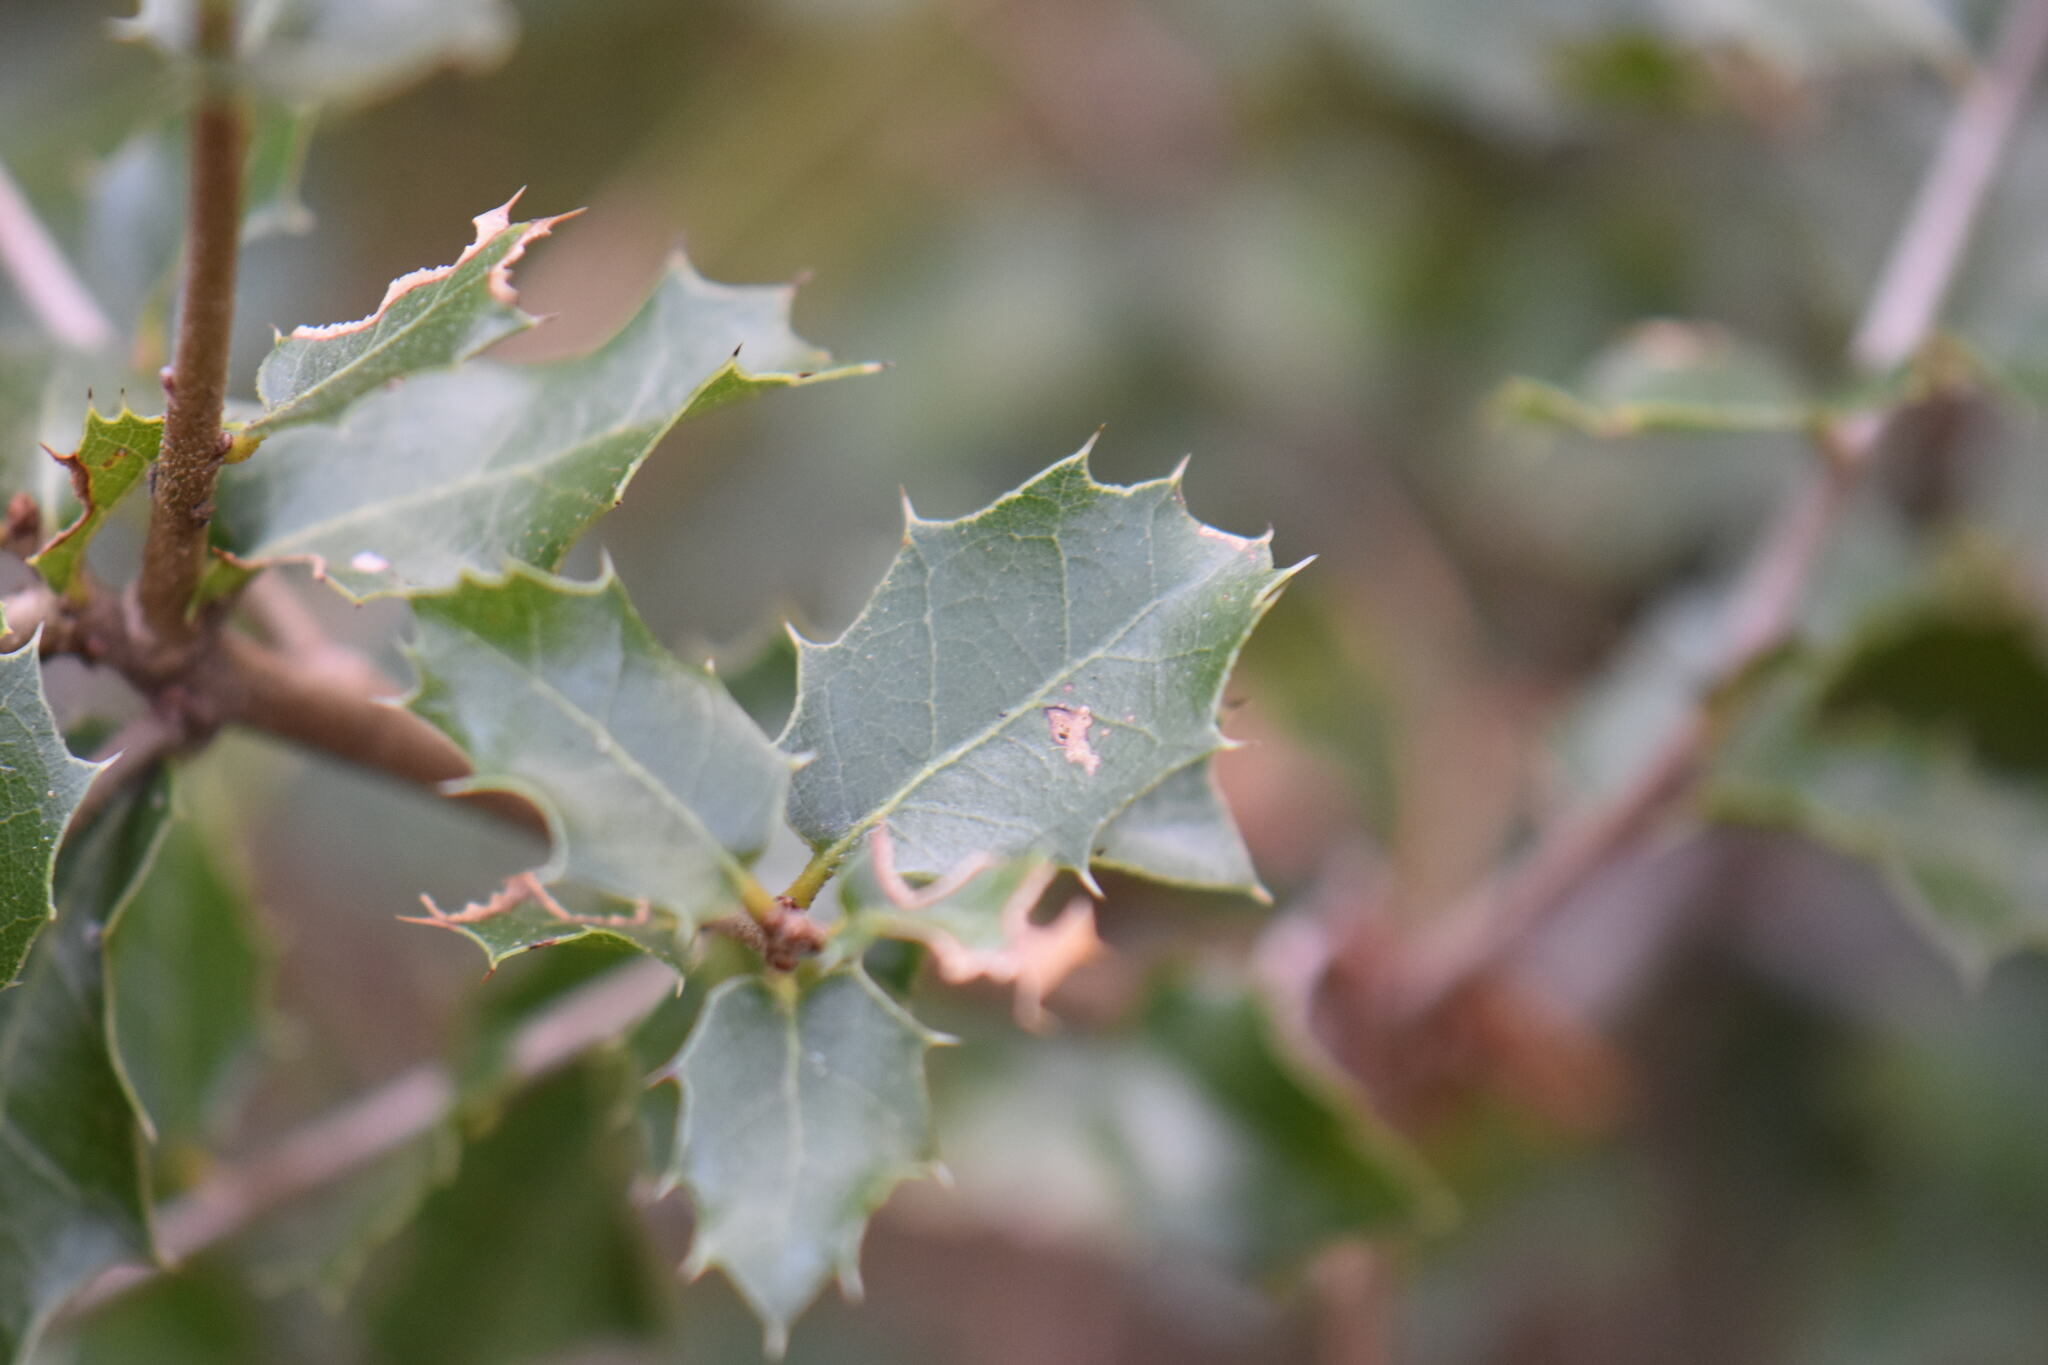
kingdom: Plantae
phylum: Tracheophyta
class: Magnoliopsida
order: Fagales
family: Fagaceae
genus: Quercus
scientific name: Quercus coccifera
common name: Kermes oak
